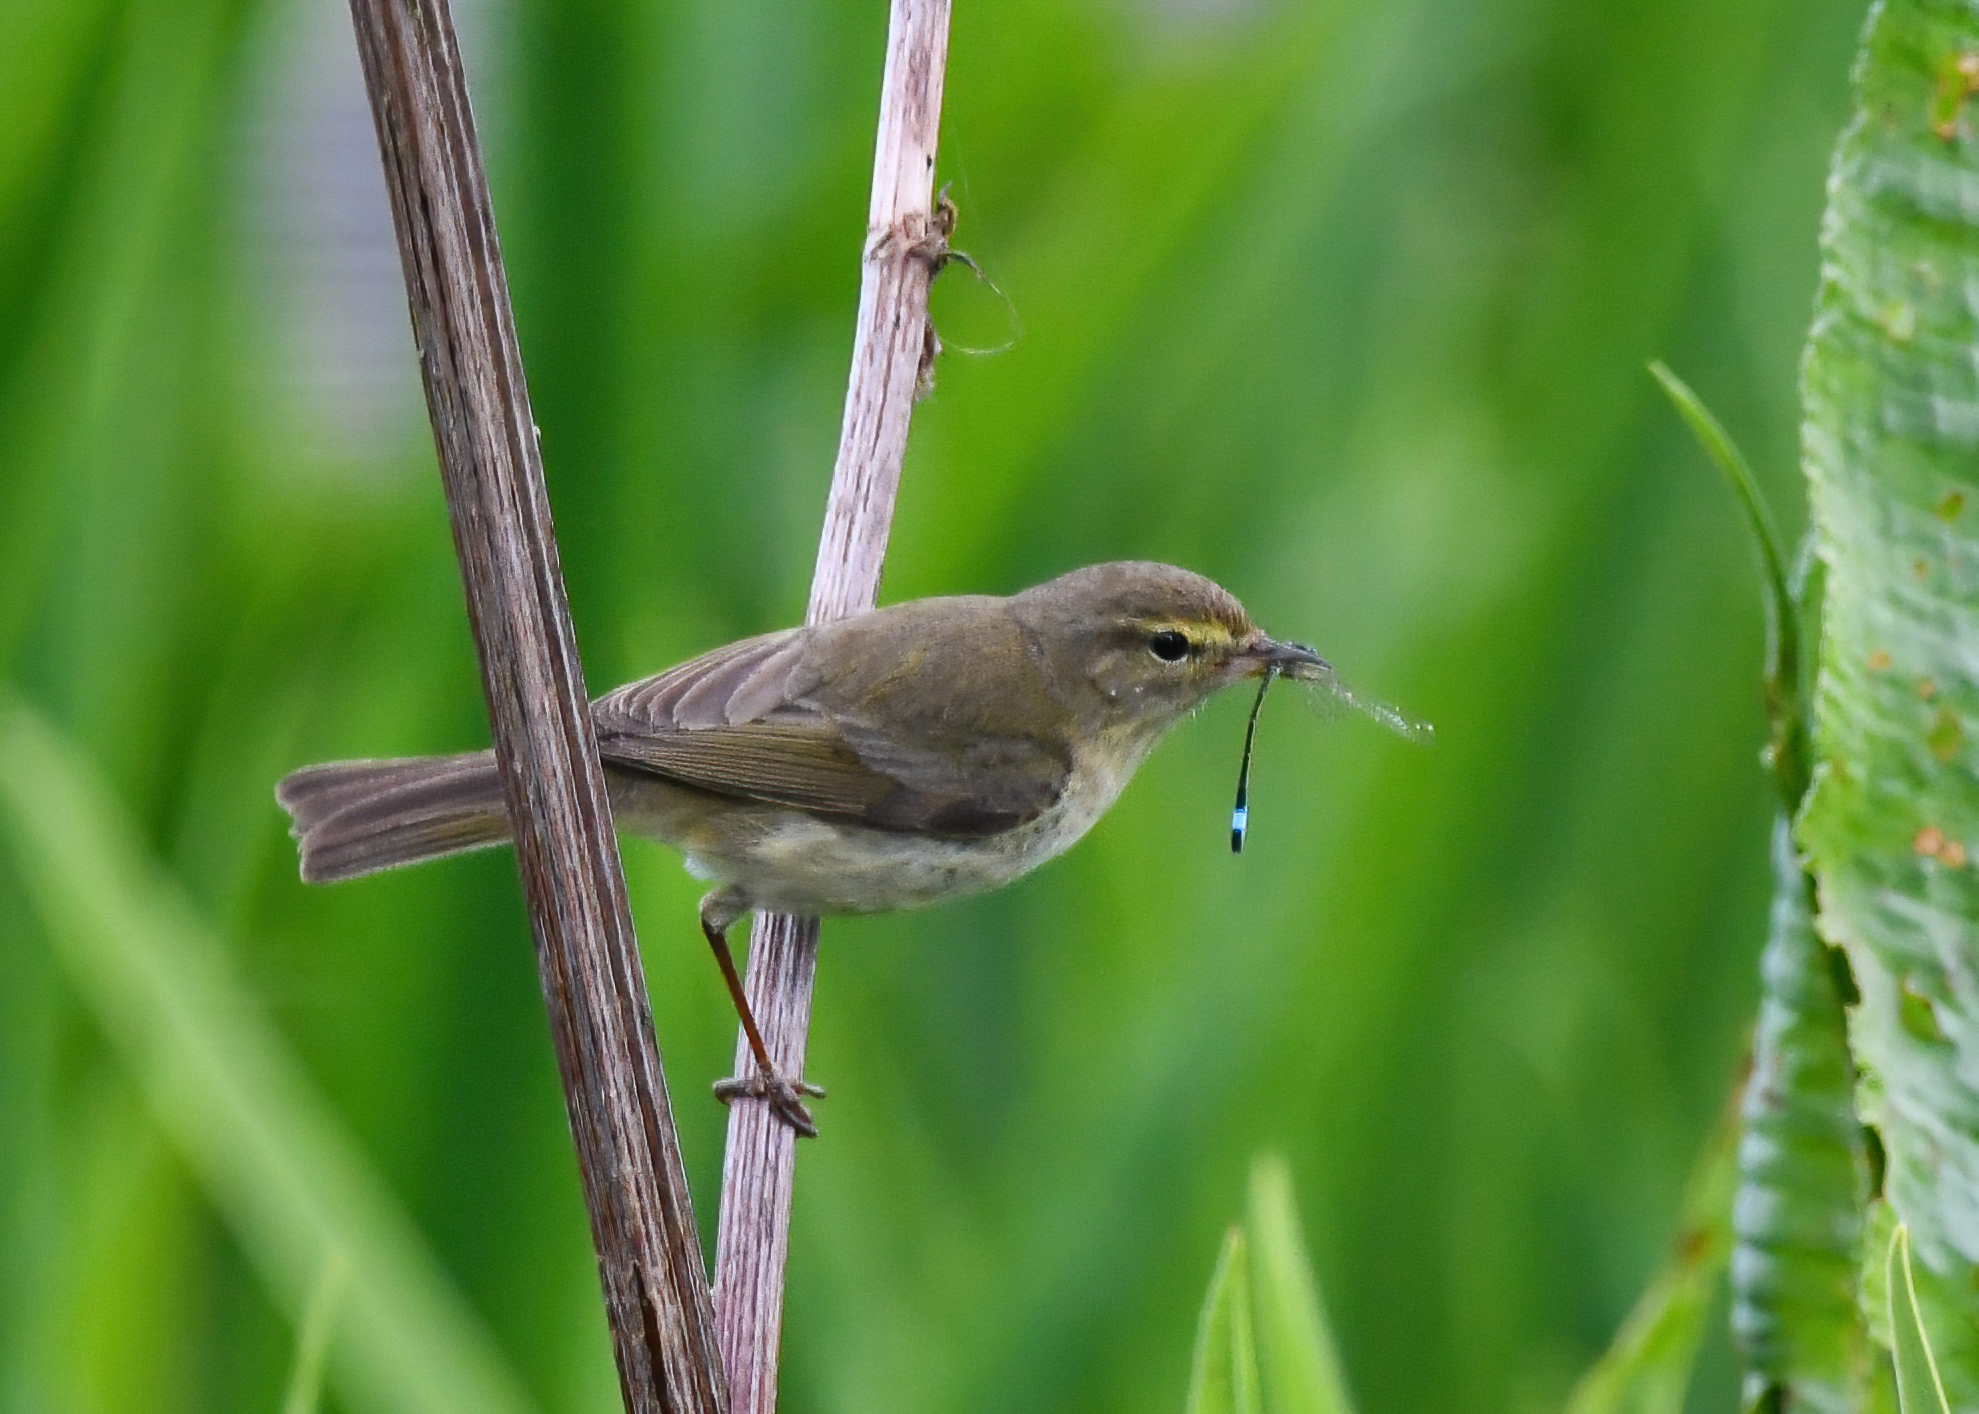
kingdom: Animalia
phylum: Chordata
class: Aves
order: Passeriformes
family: Phylloscopidae
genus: Phylloscopus
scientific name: Phylloscopus collybita
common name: Common chiffchaff
